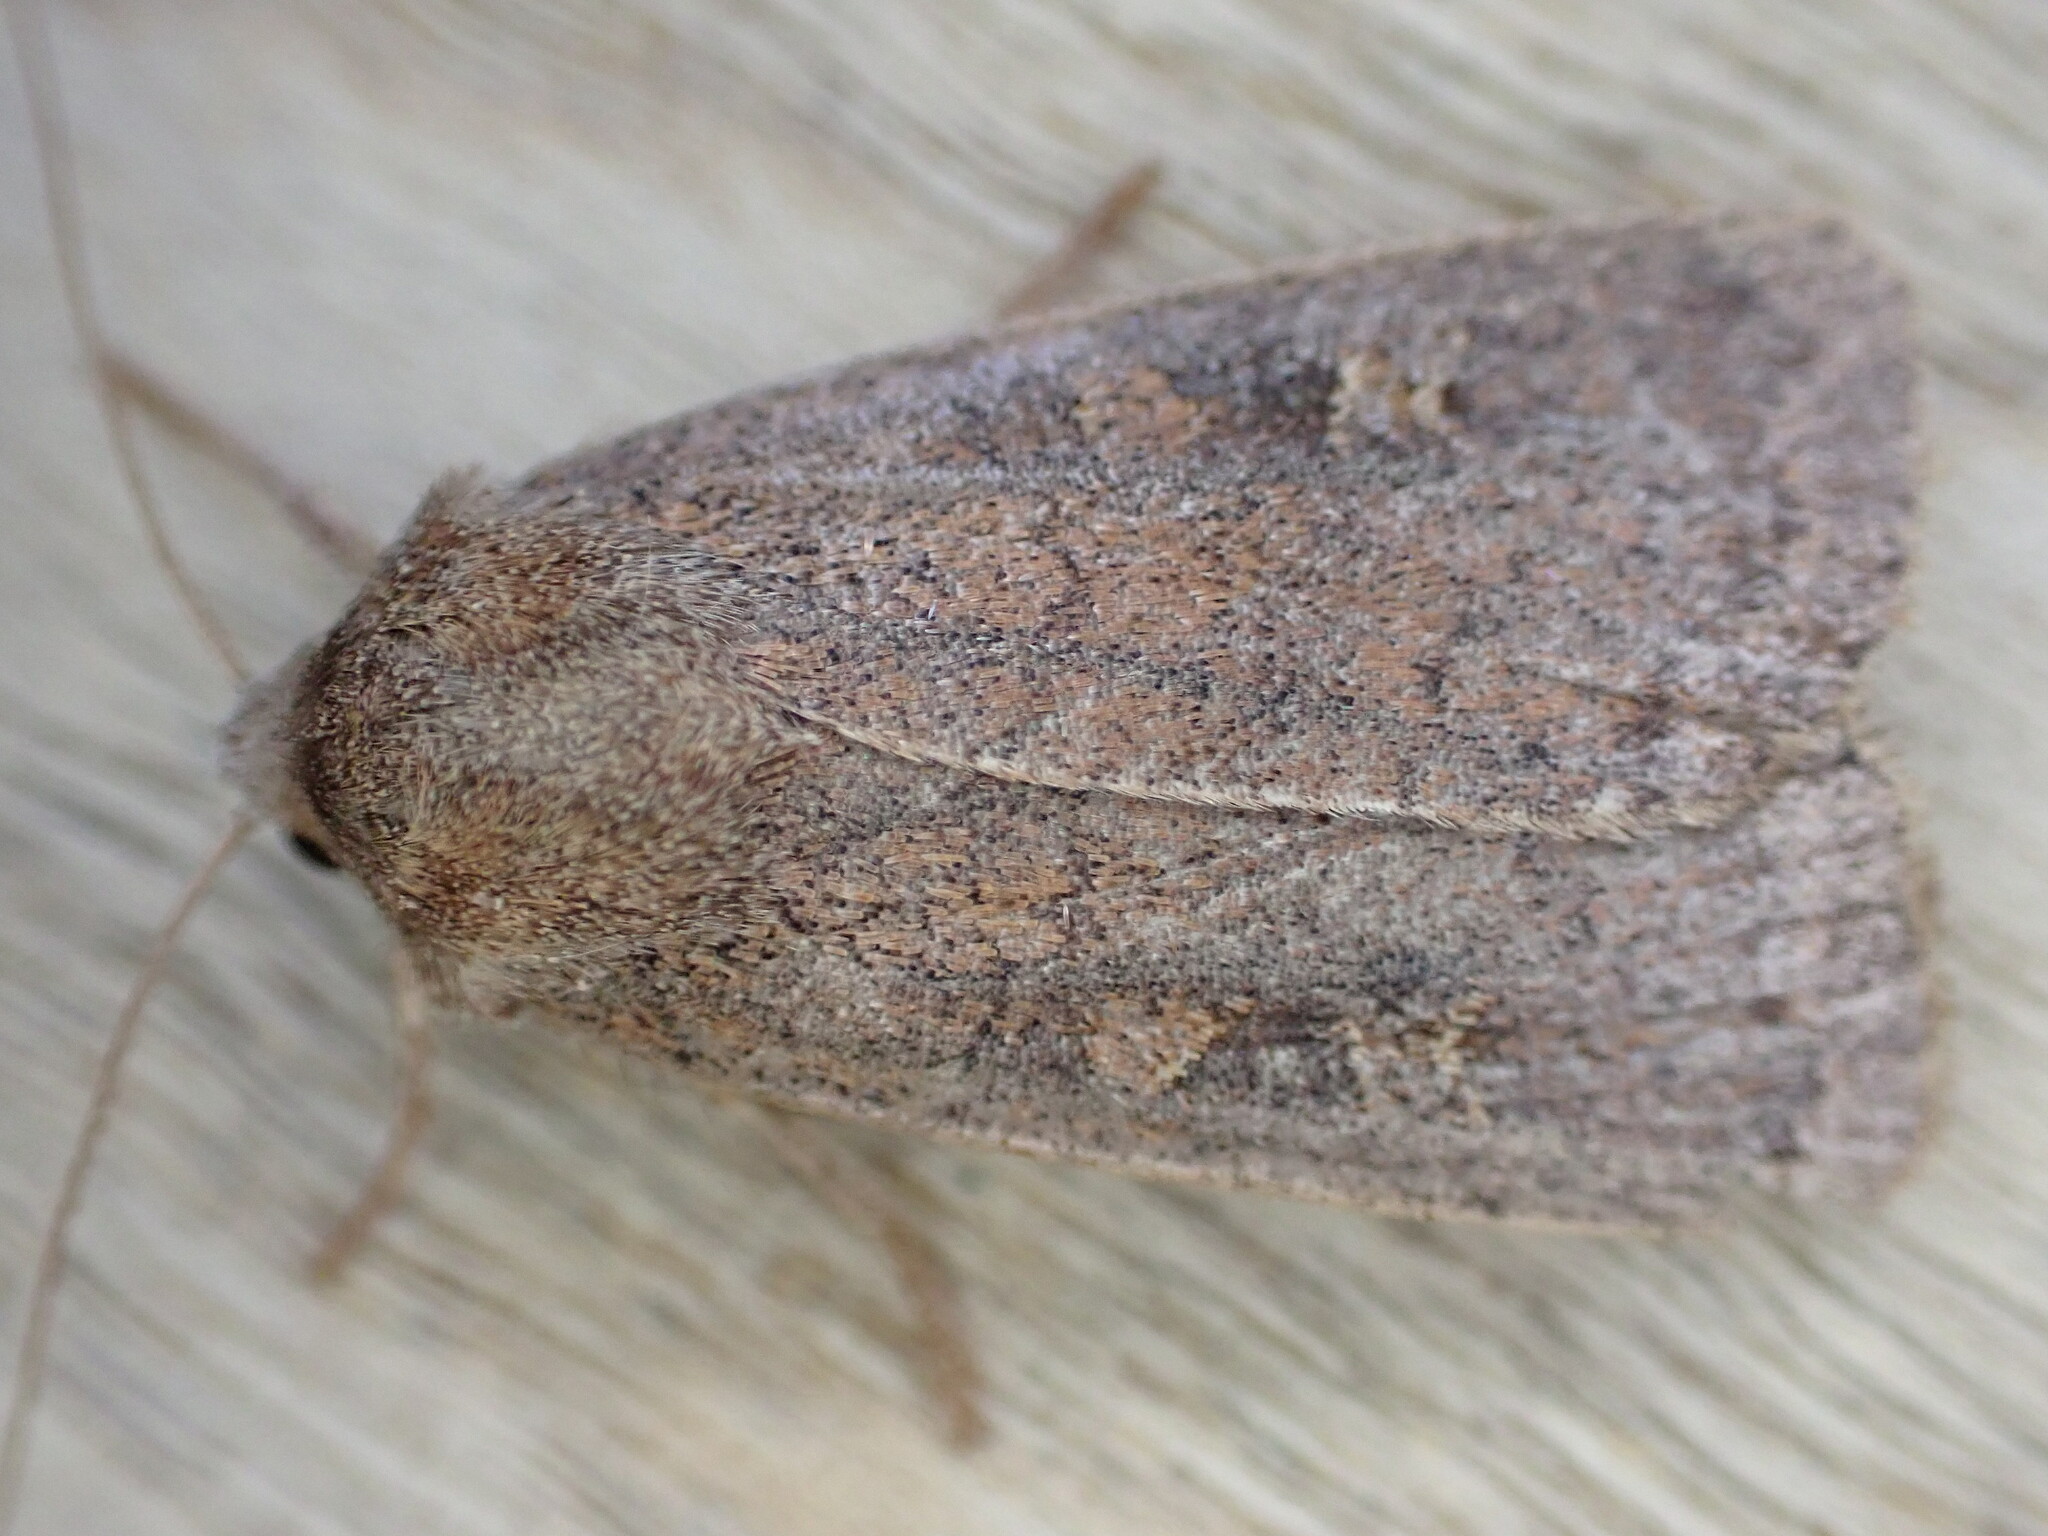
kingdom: Animalia
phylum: Arthropoda
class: Insecta
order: Lepidoptera
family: Noctuidae
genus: Xestia
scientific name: Xestia xanthographa
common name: Square-spot rustic
